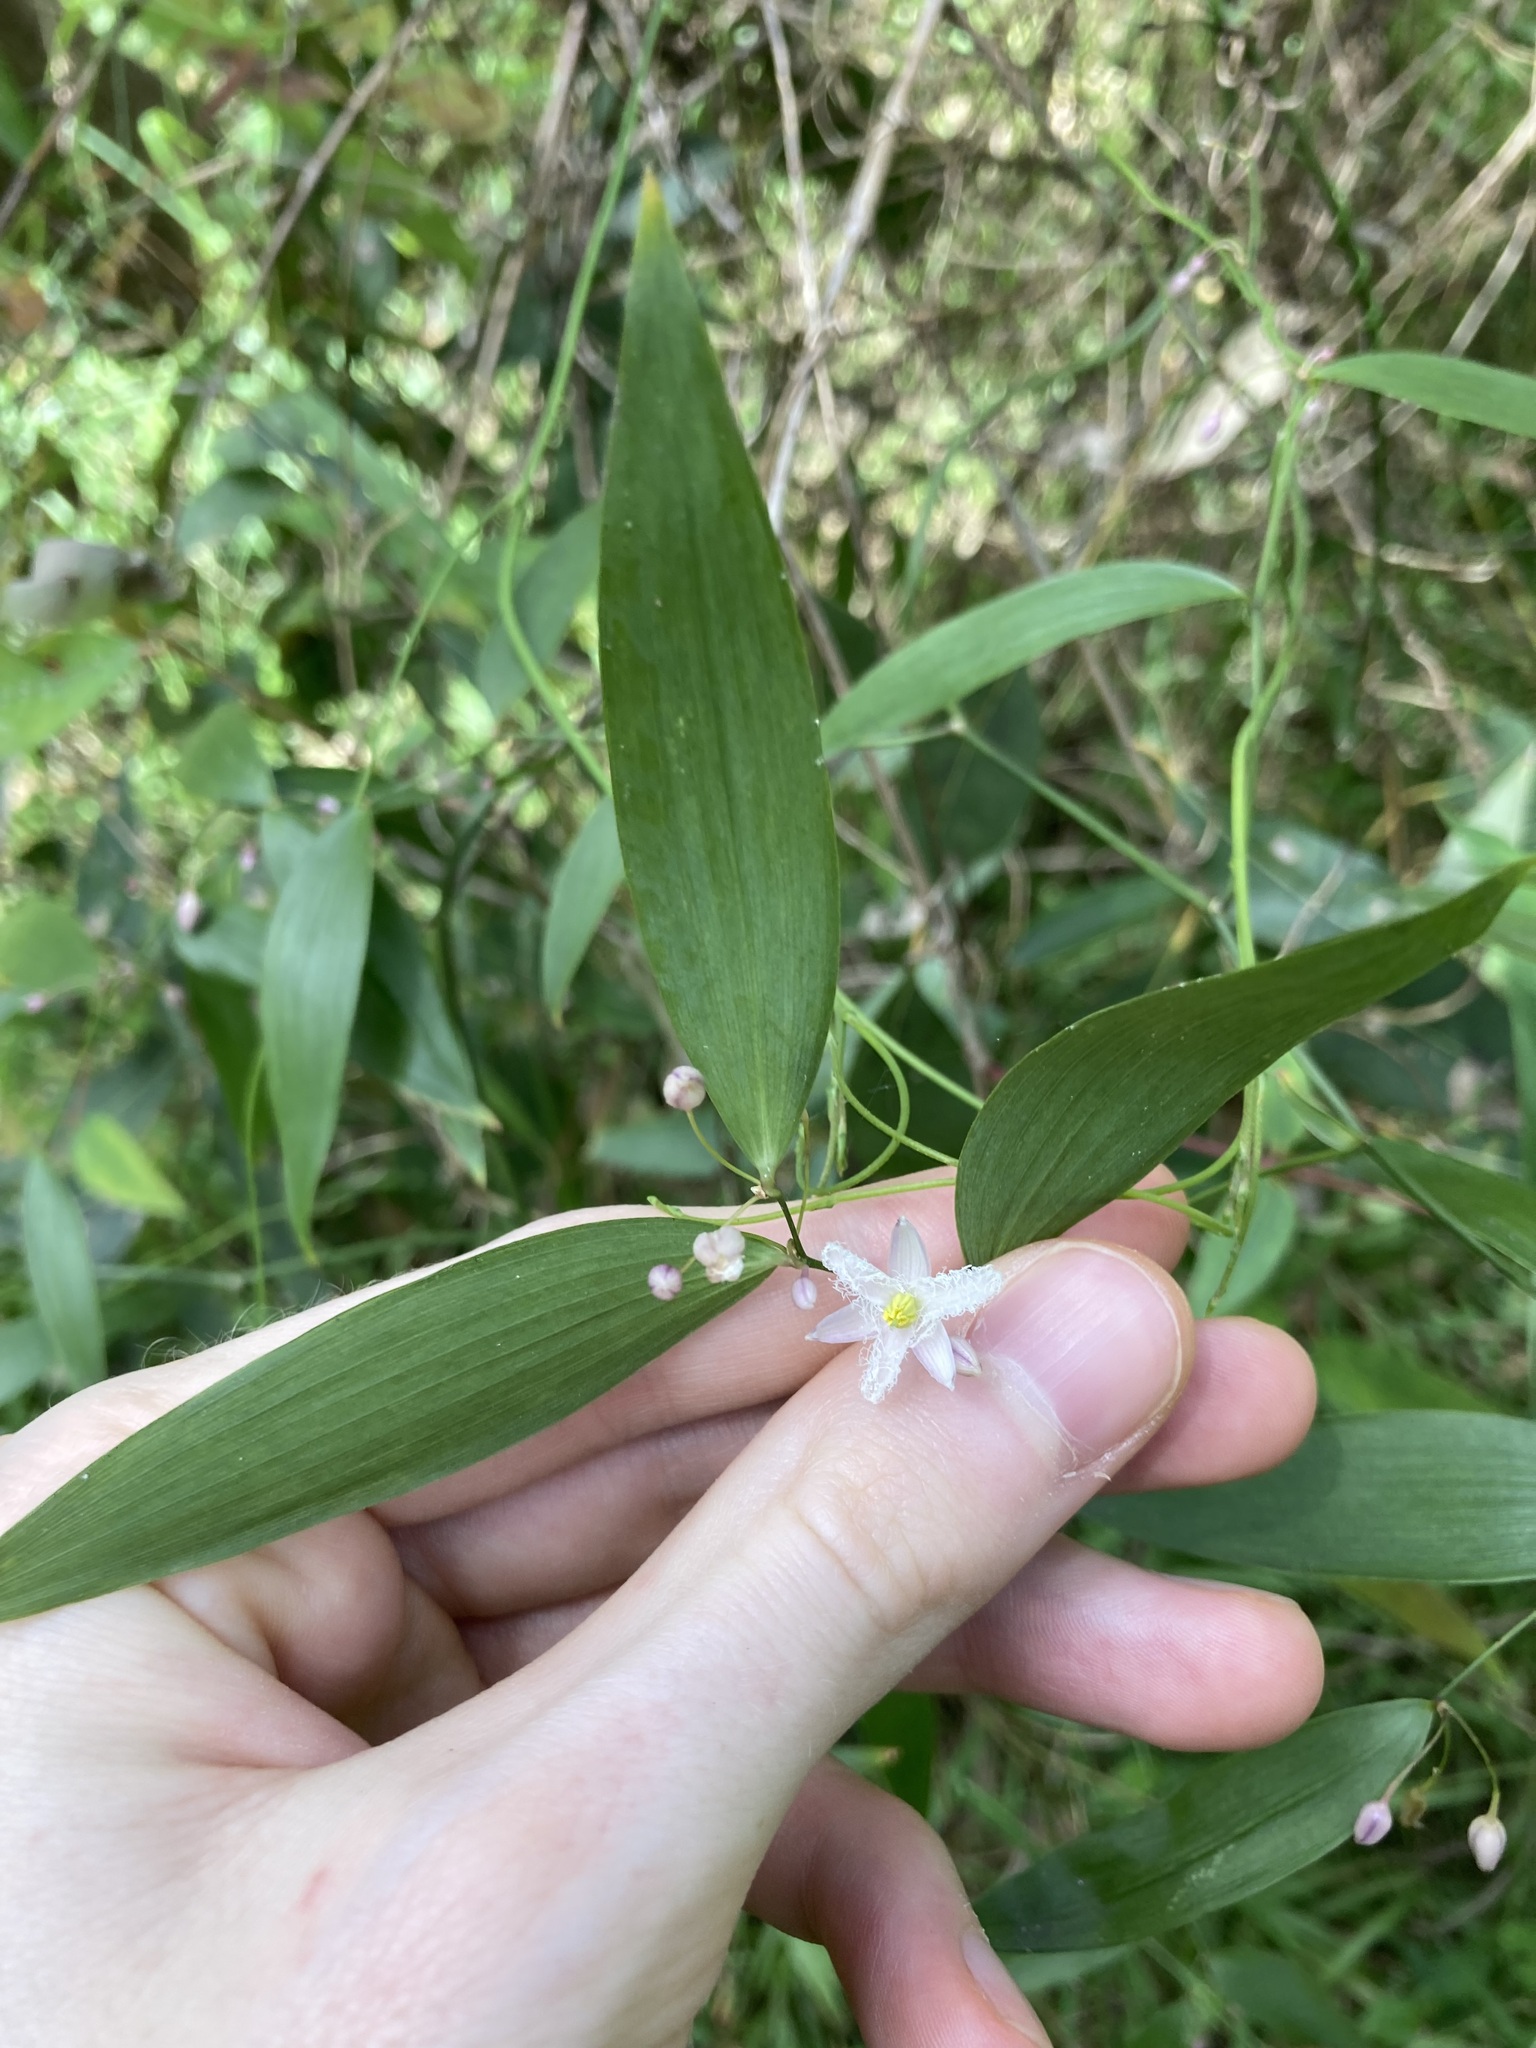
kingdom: Plantae
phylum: Tracheophyta
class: Liliopsida
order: Asparagales
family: Asparagaceae
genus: Eustrephus
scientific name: Eustrephus latifolius
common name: Orangevine
